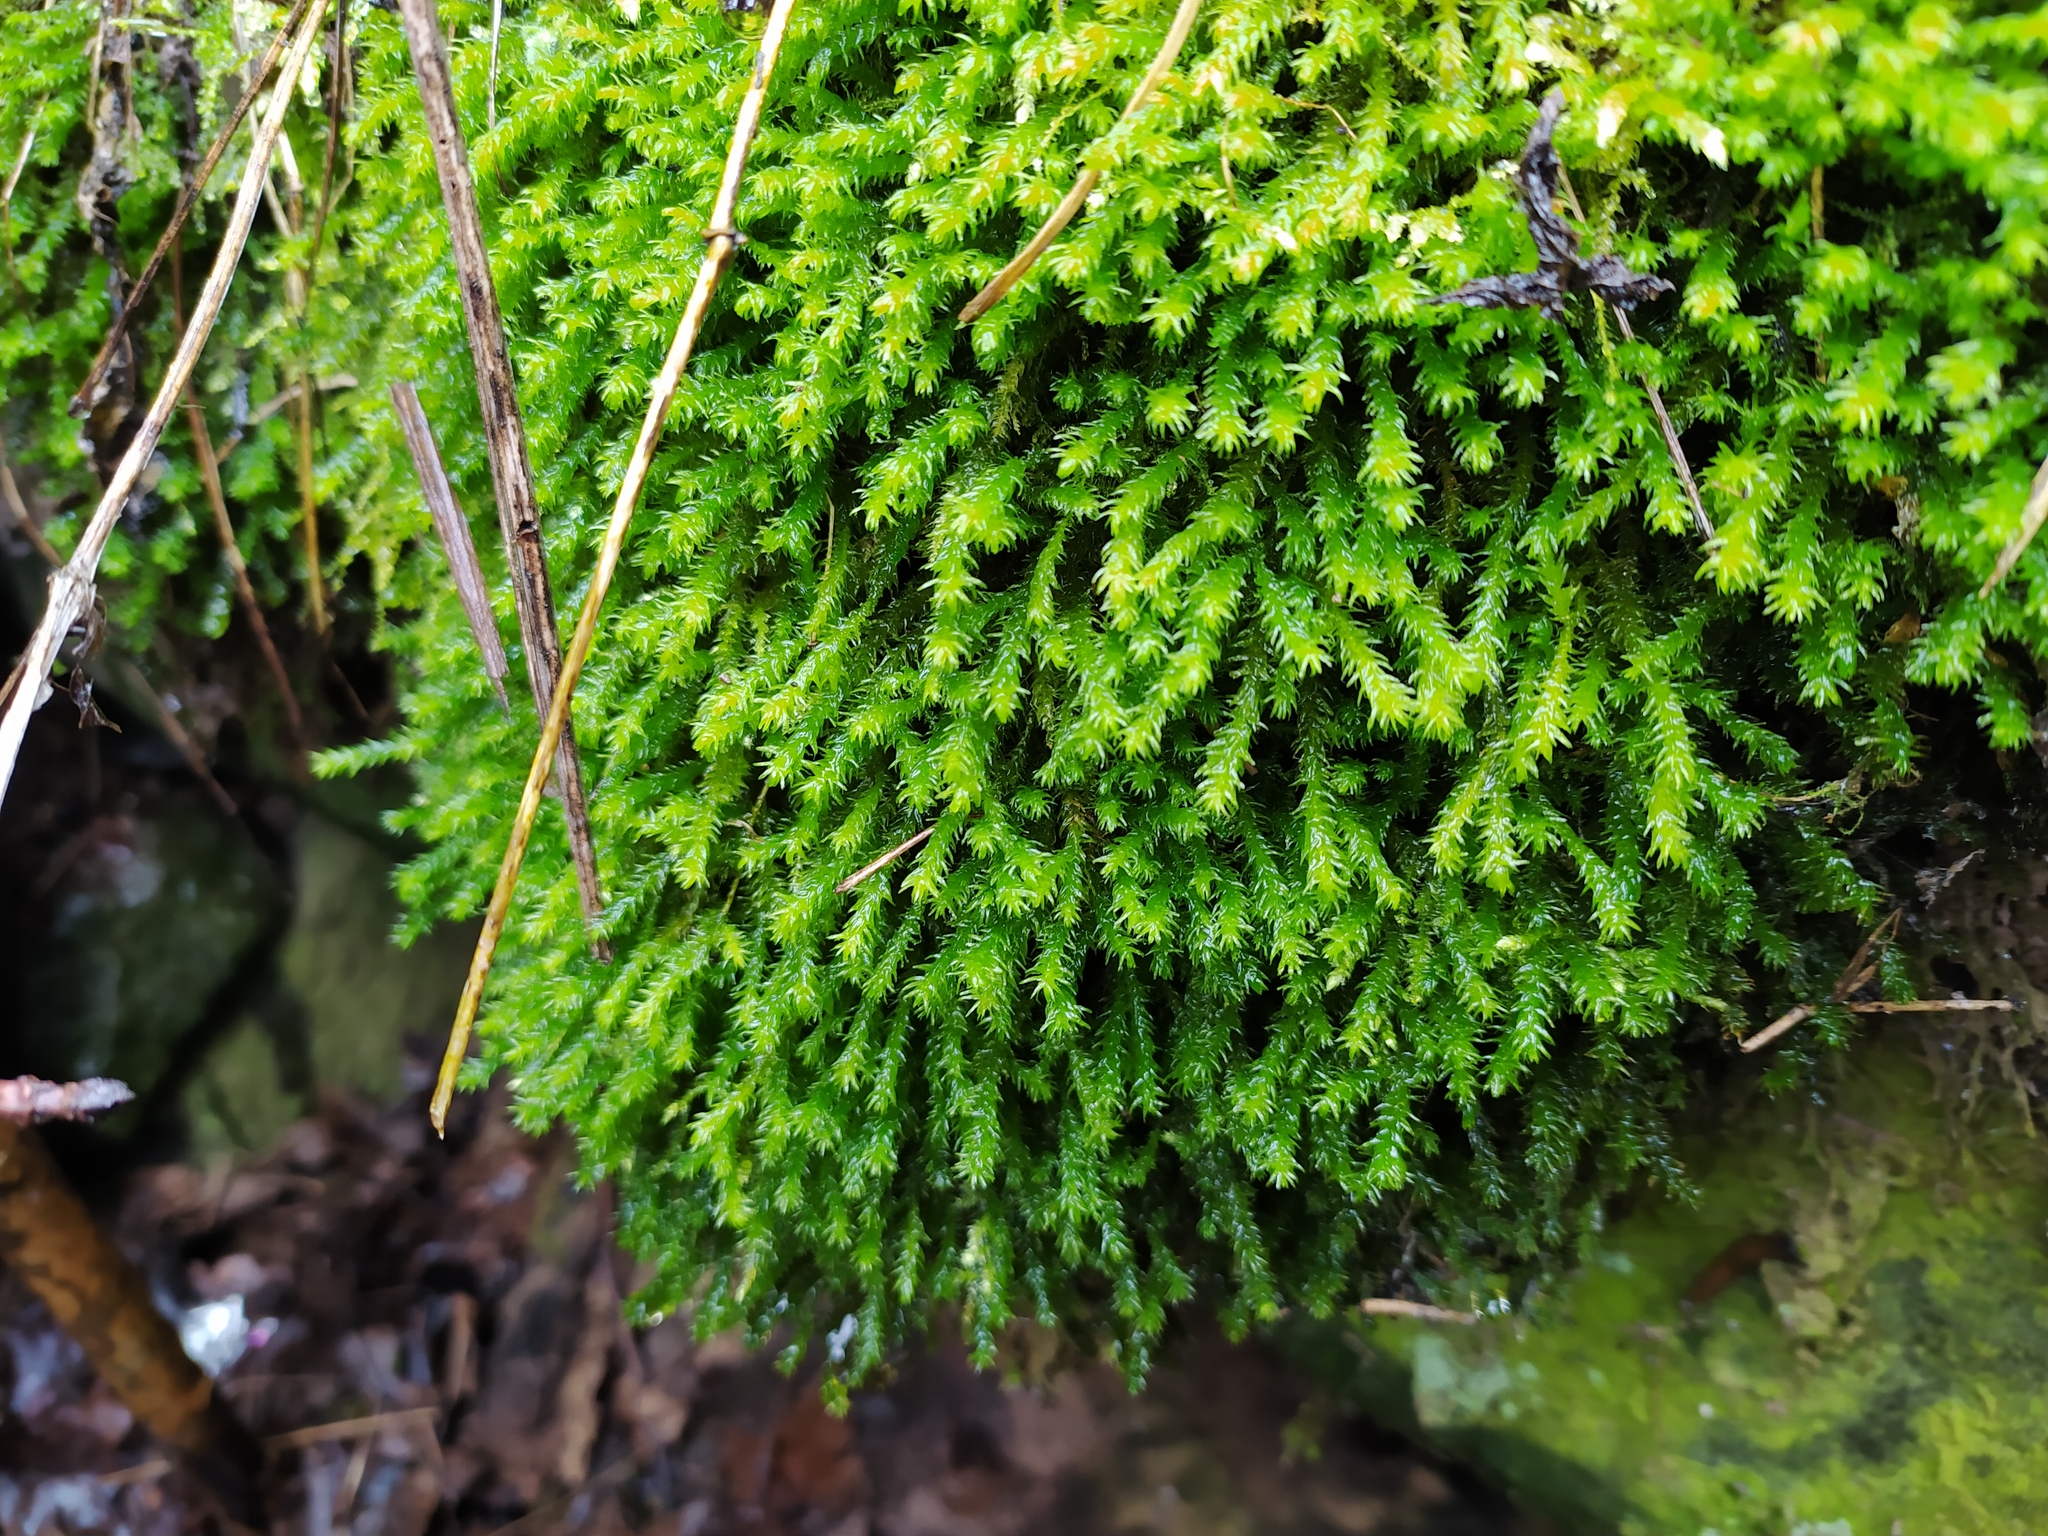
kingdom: Plantae
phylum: Bryophyta
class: Bryopsida
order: Hypnales
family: Anomodontaceae
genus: Anomodon
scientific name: Anomodon viticulosus
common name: Tall anomodon
